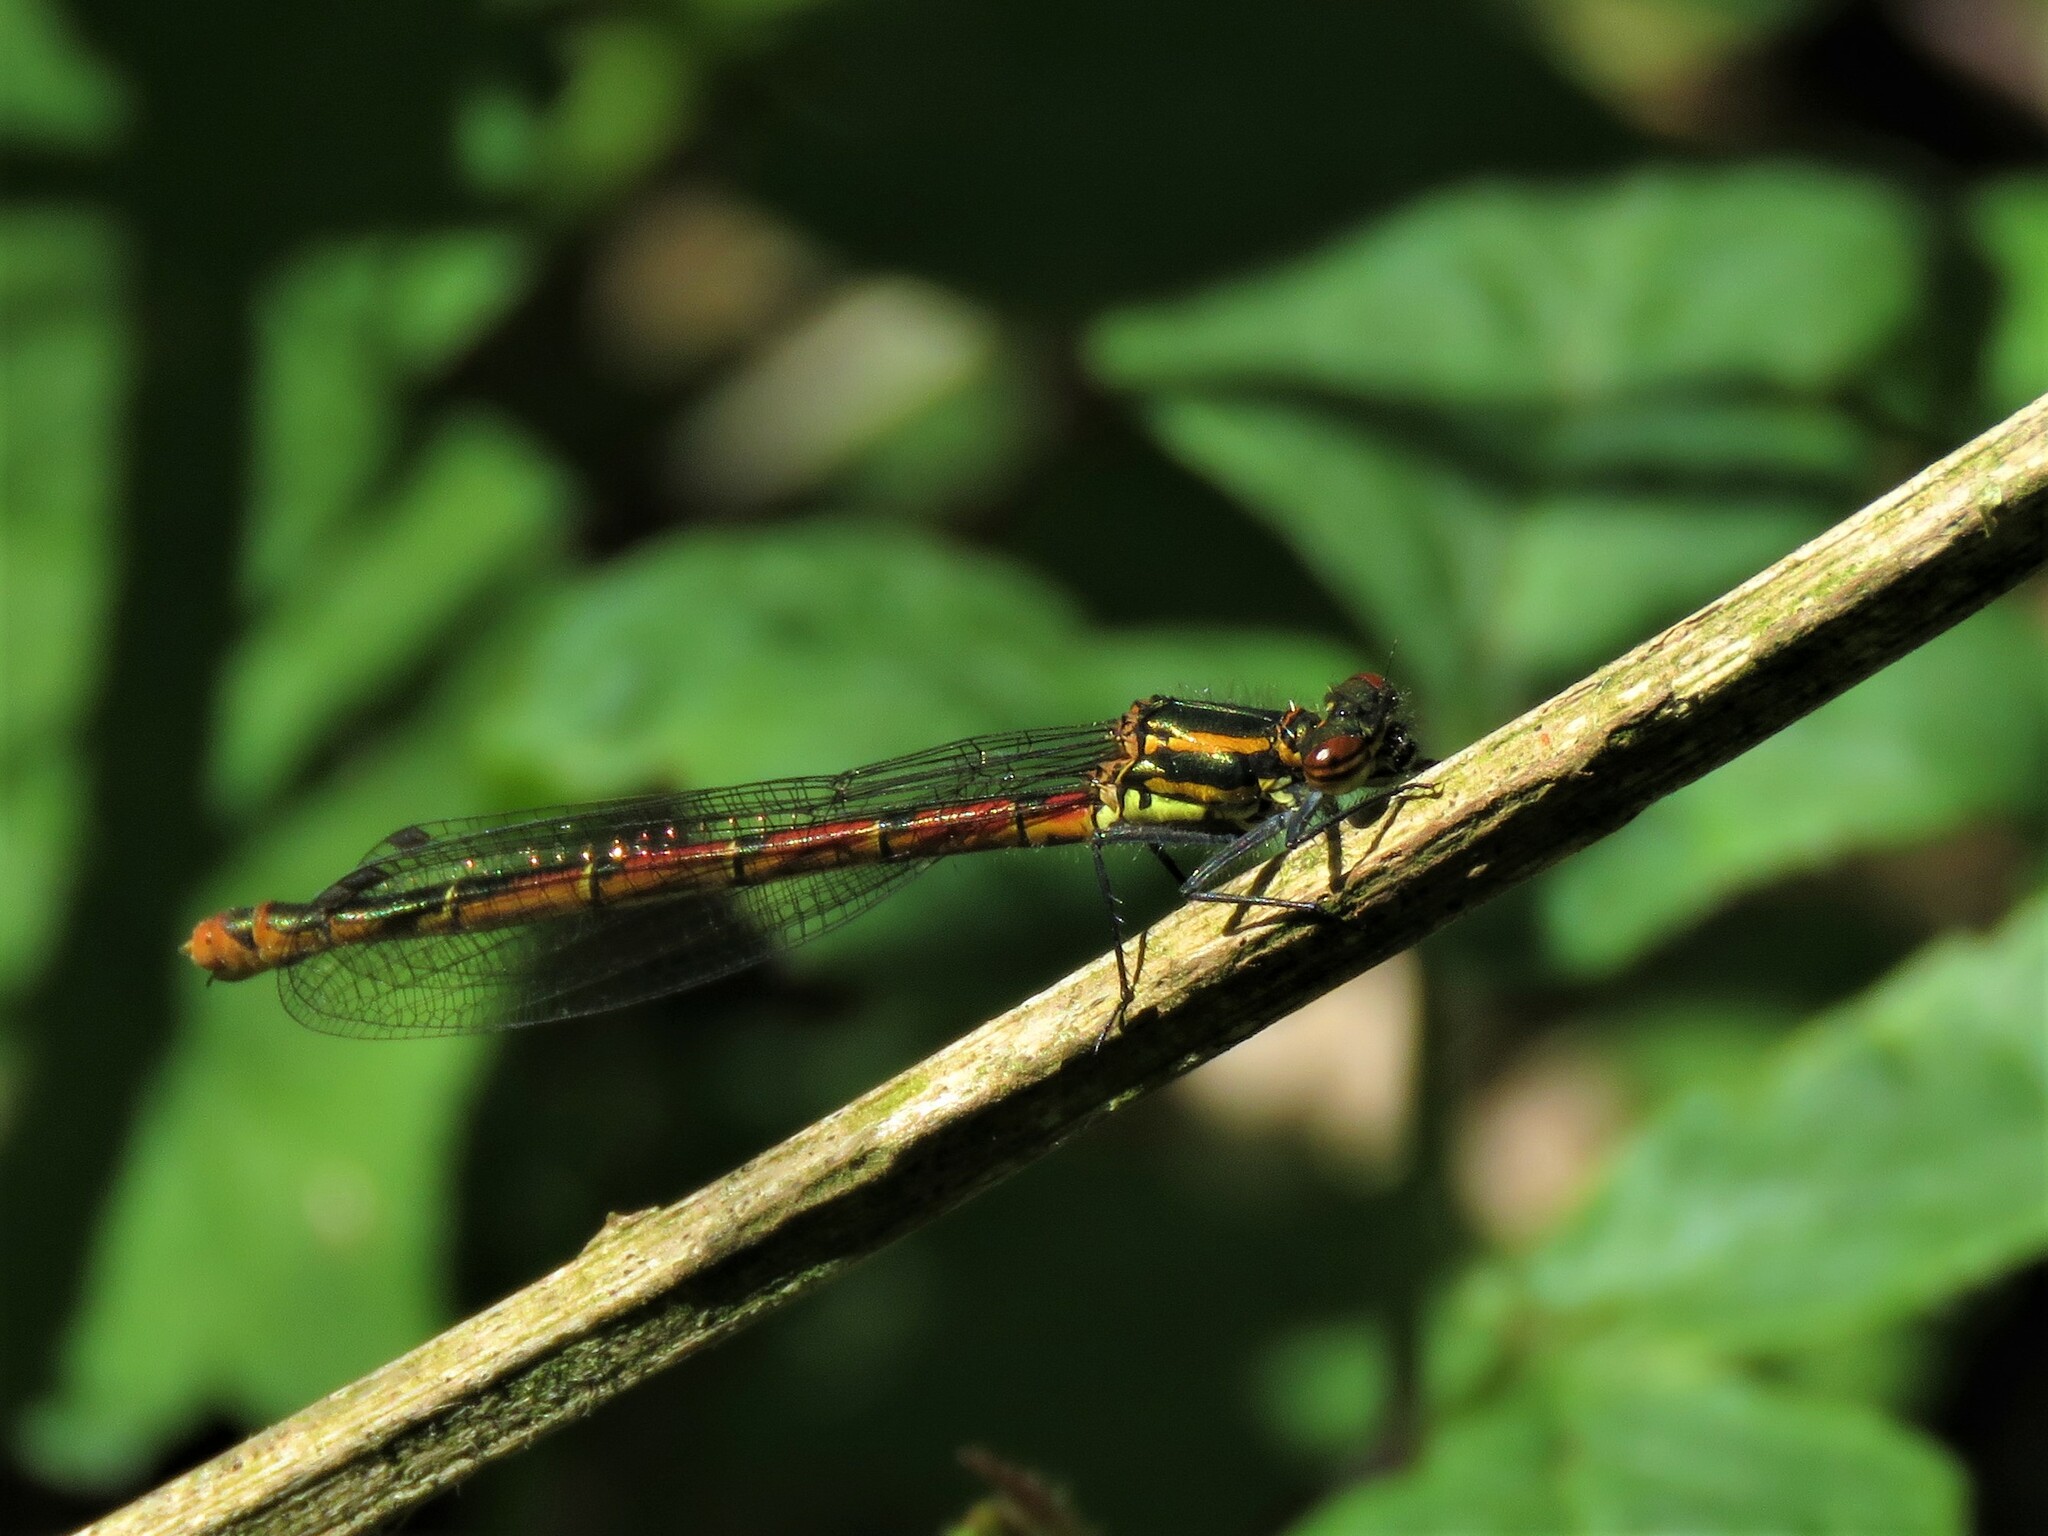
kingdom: Animalia
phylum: Arthropoda
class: Insecta
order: Odonata
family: Coenagrionidae
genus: Pyrrhosoma
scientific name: Pyrrhosoma nymphula
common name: Large red damsel
